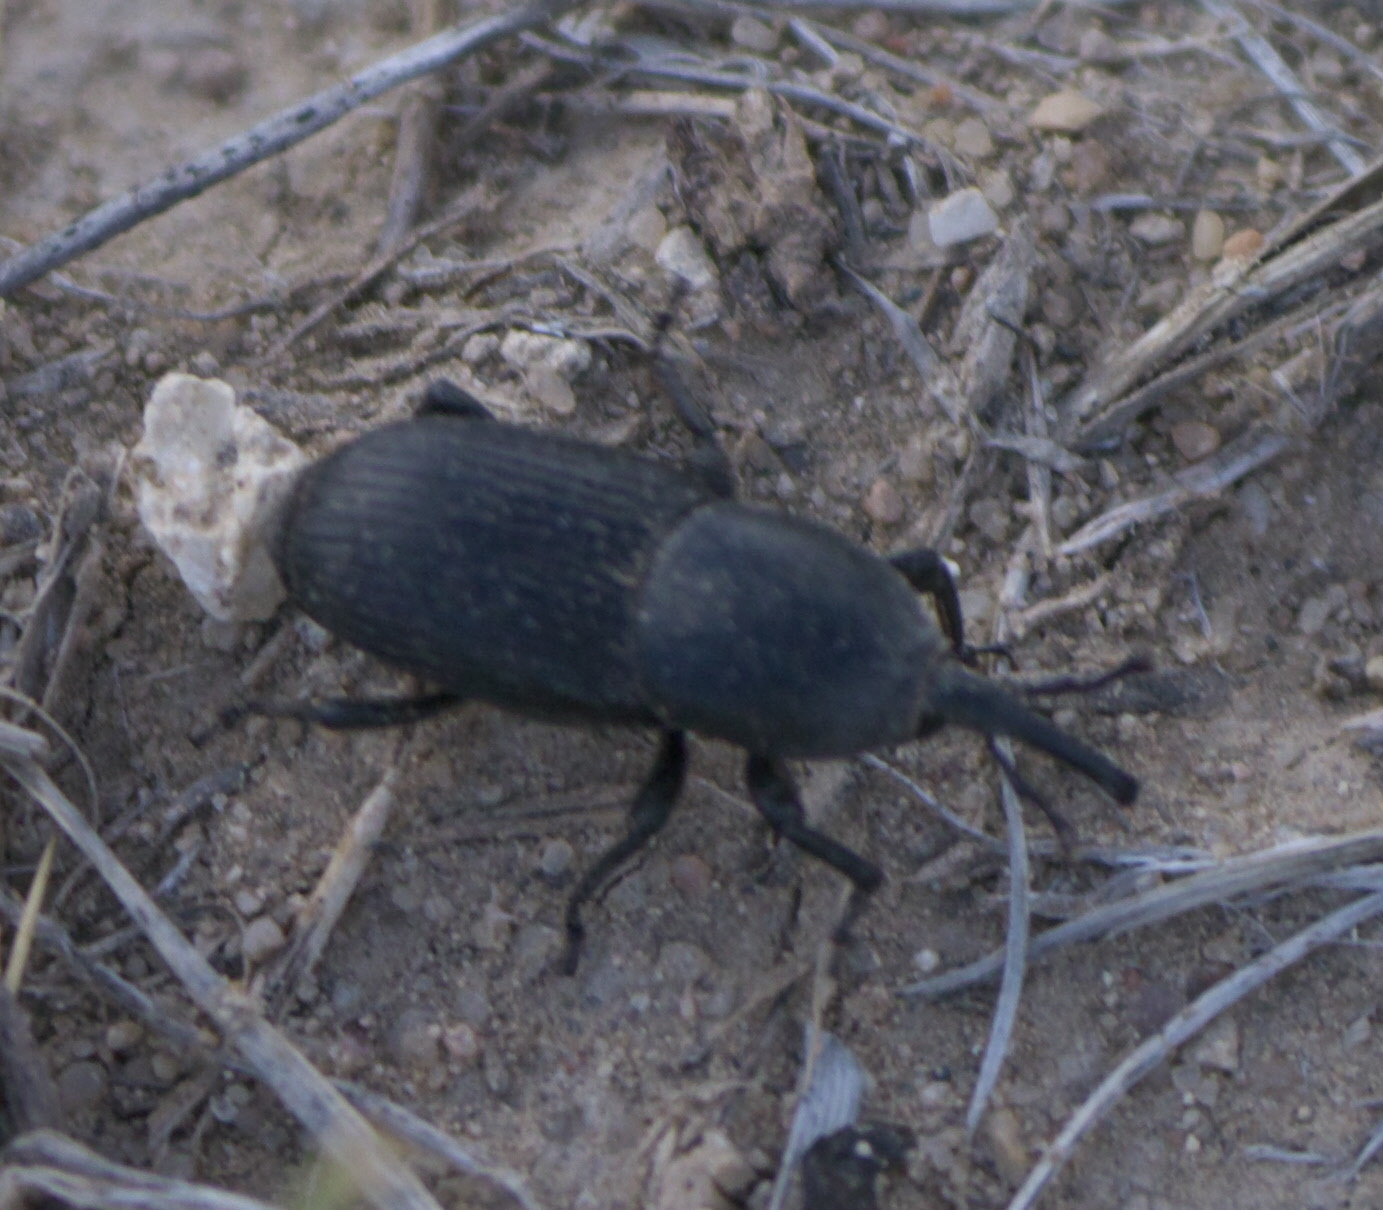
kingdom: Animalia
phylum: Arthropoda
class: Insecta
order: Coleoptera
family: Dryophthoridae
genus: Scyphophorus
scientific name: Scyphophorus acupunctatus
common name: Weevil
